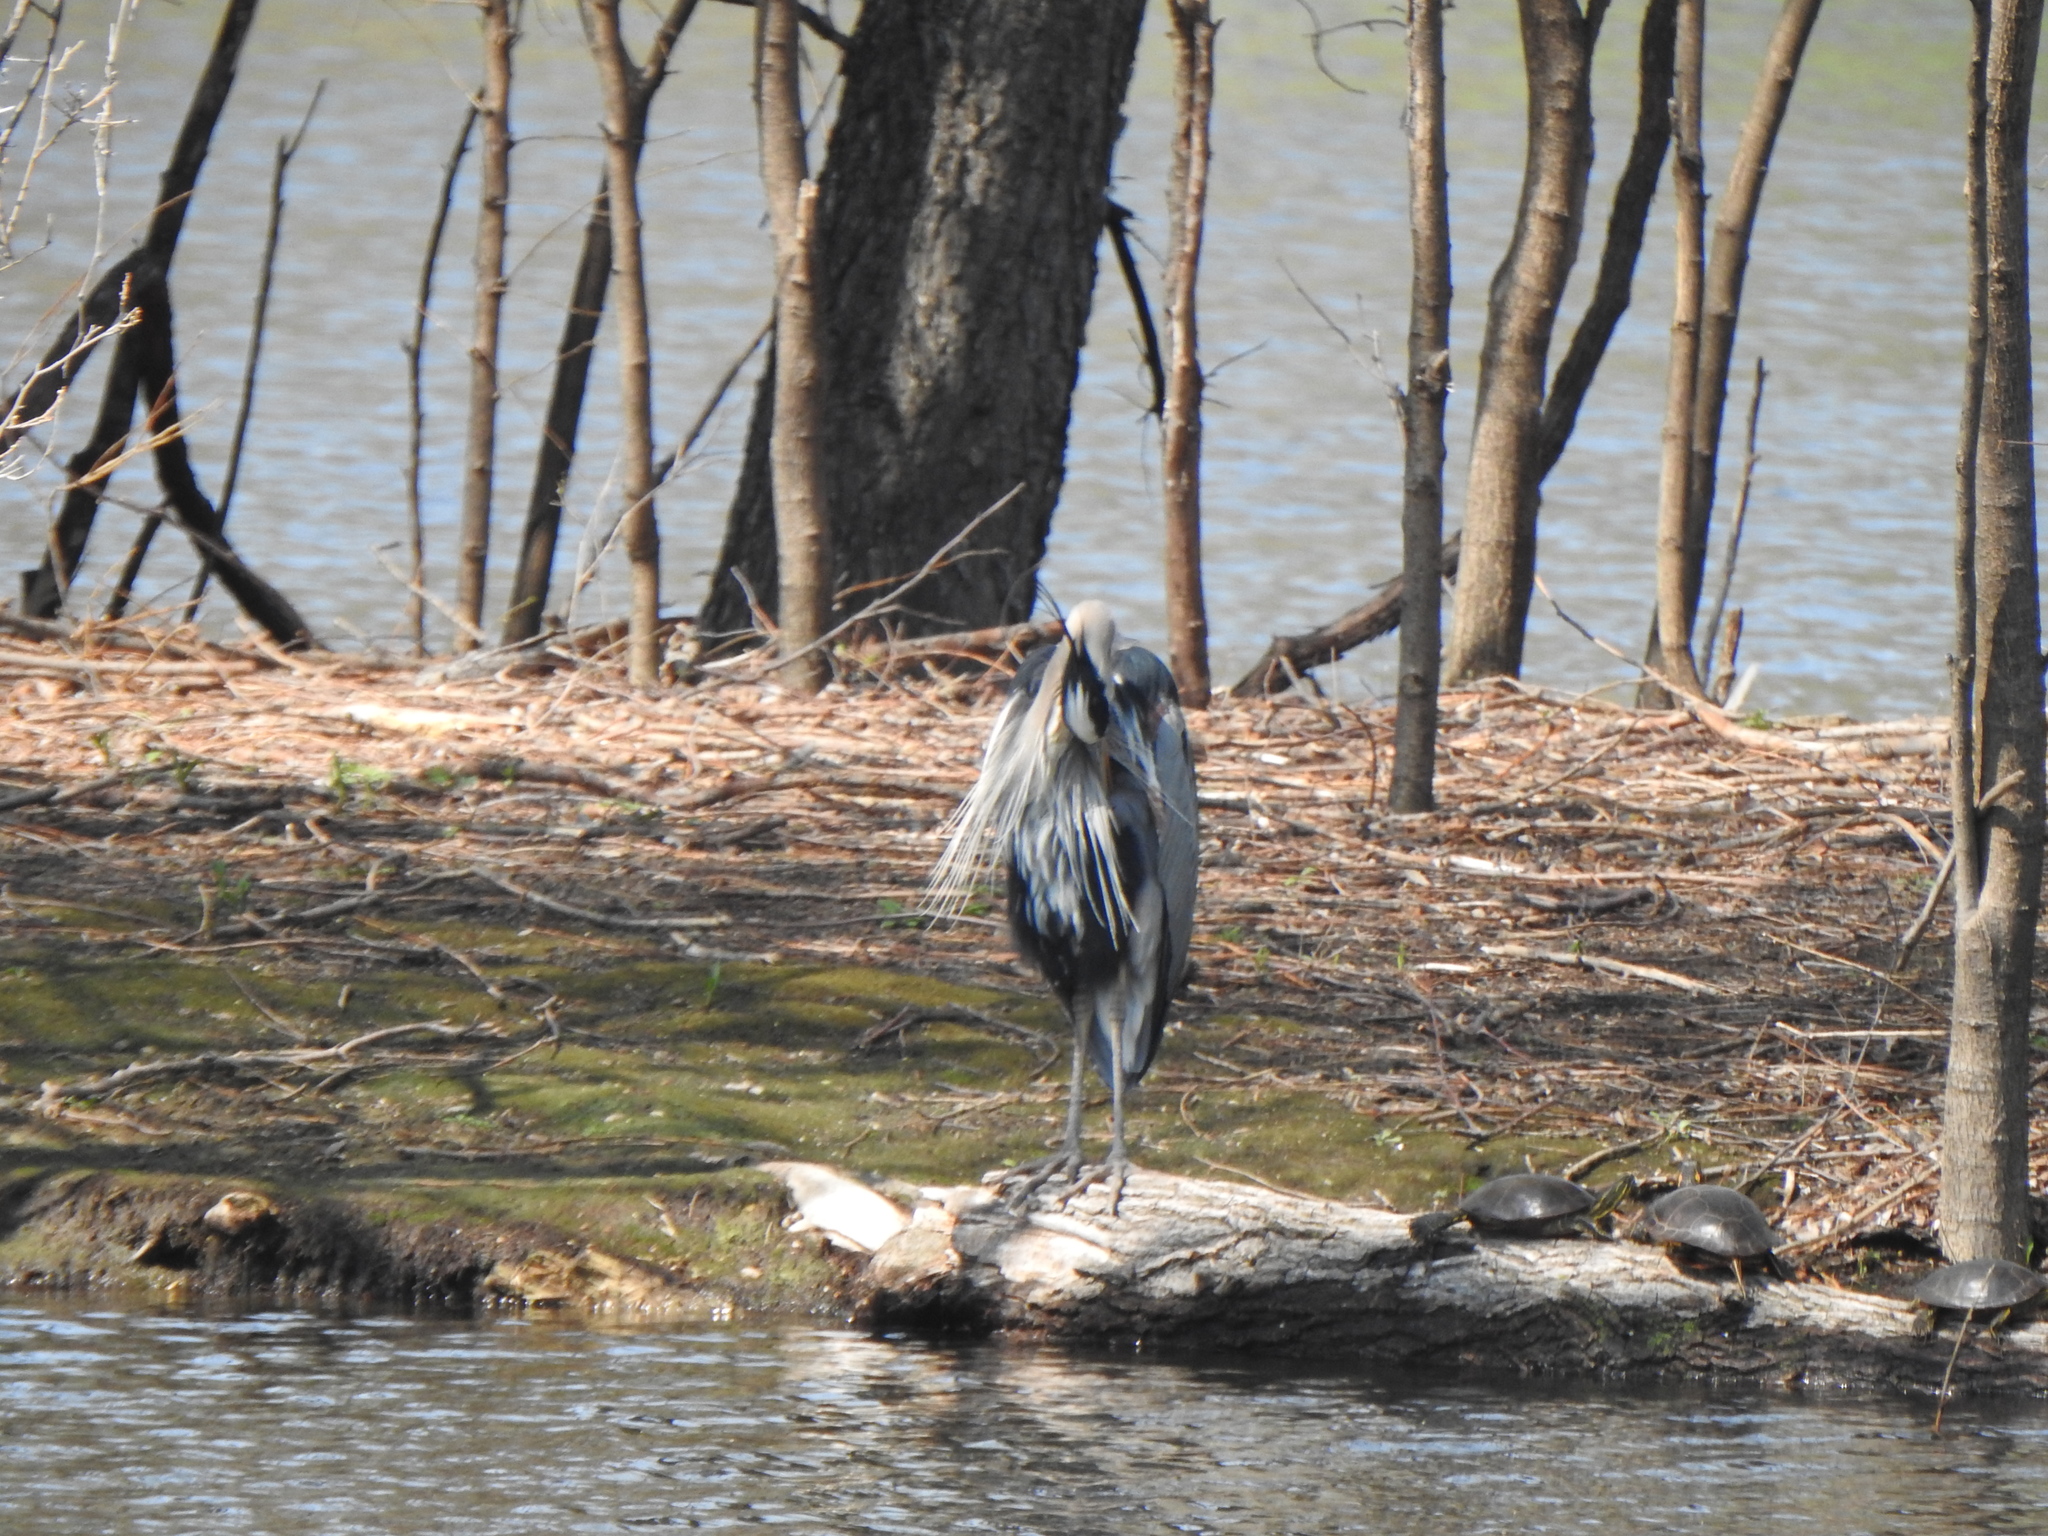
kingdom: Animalia
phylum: Chordata
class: Aves
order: Pelecaniformes
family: Ardeidae
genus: Ardea
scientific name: Ardea herodias
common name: Great blue heron
